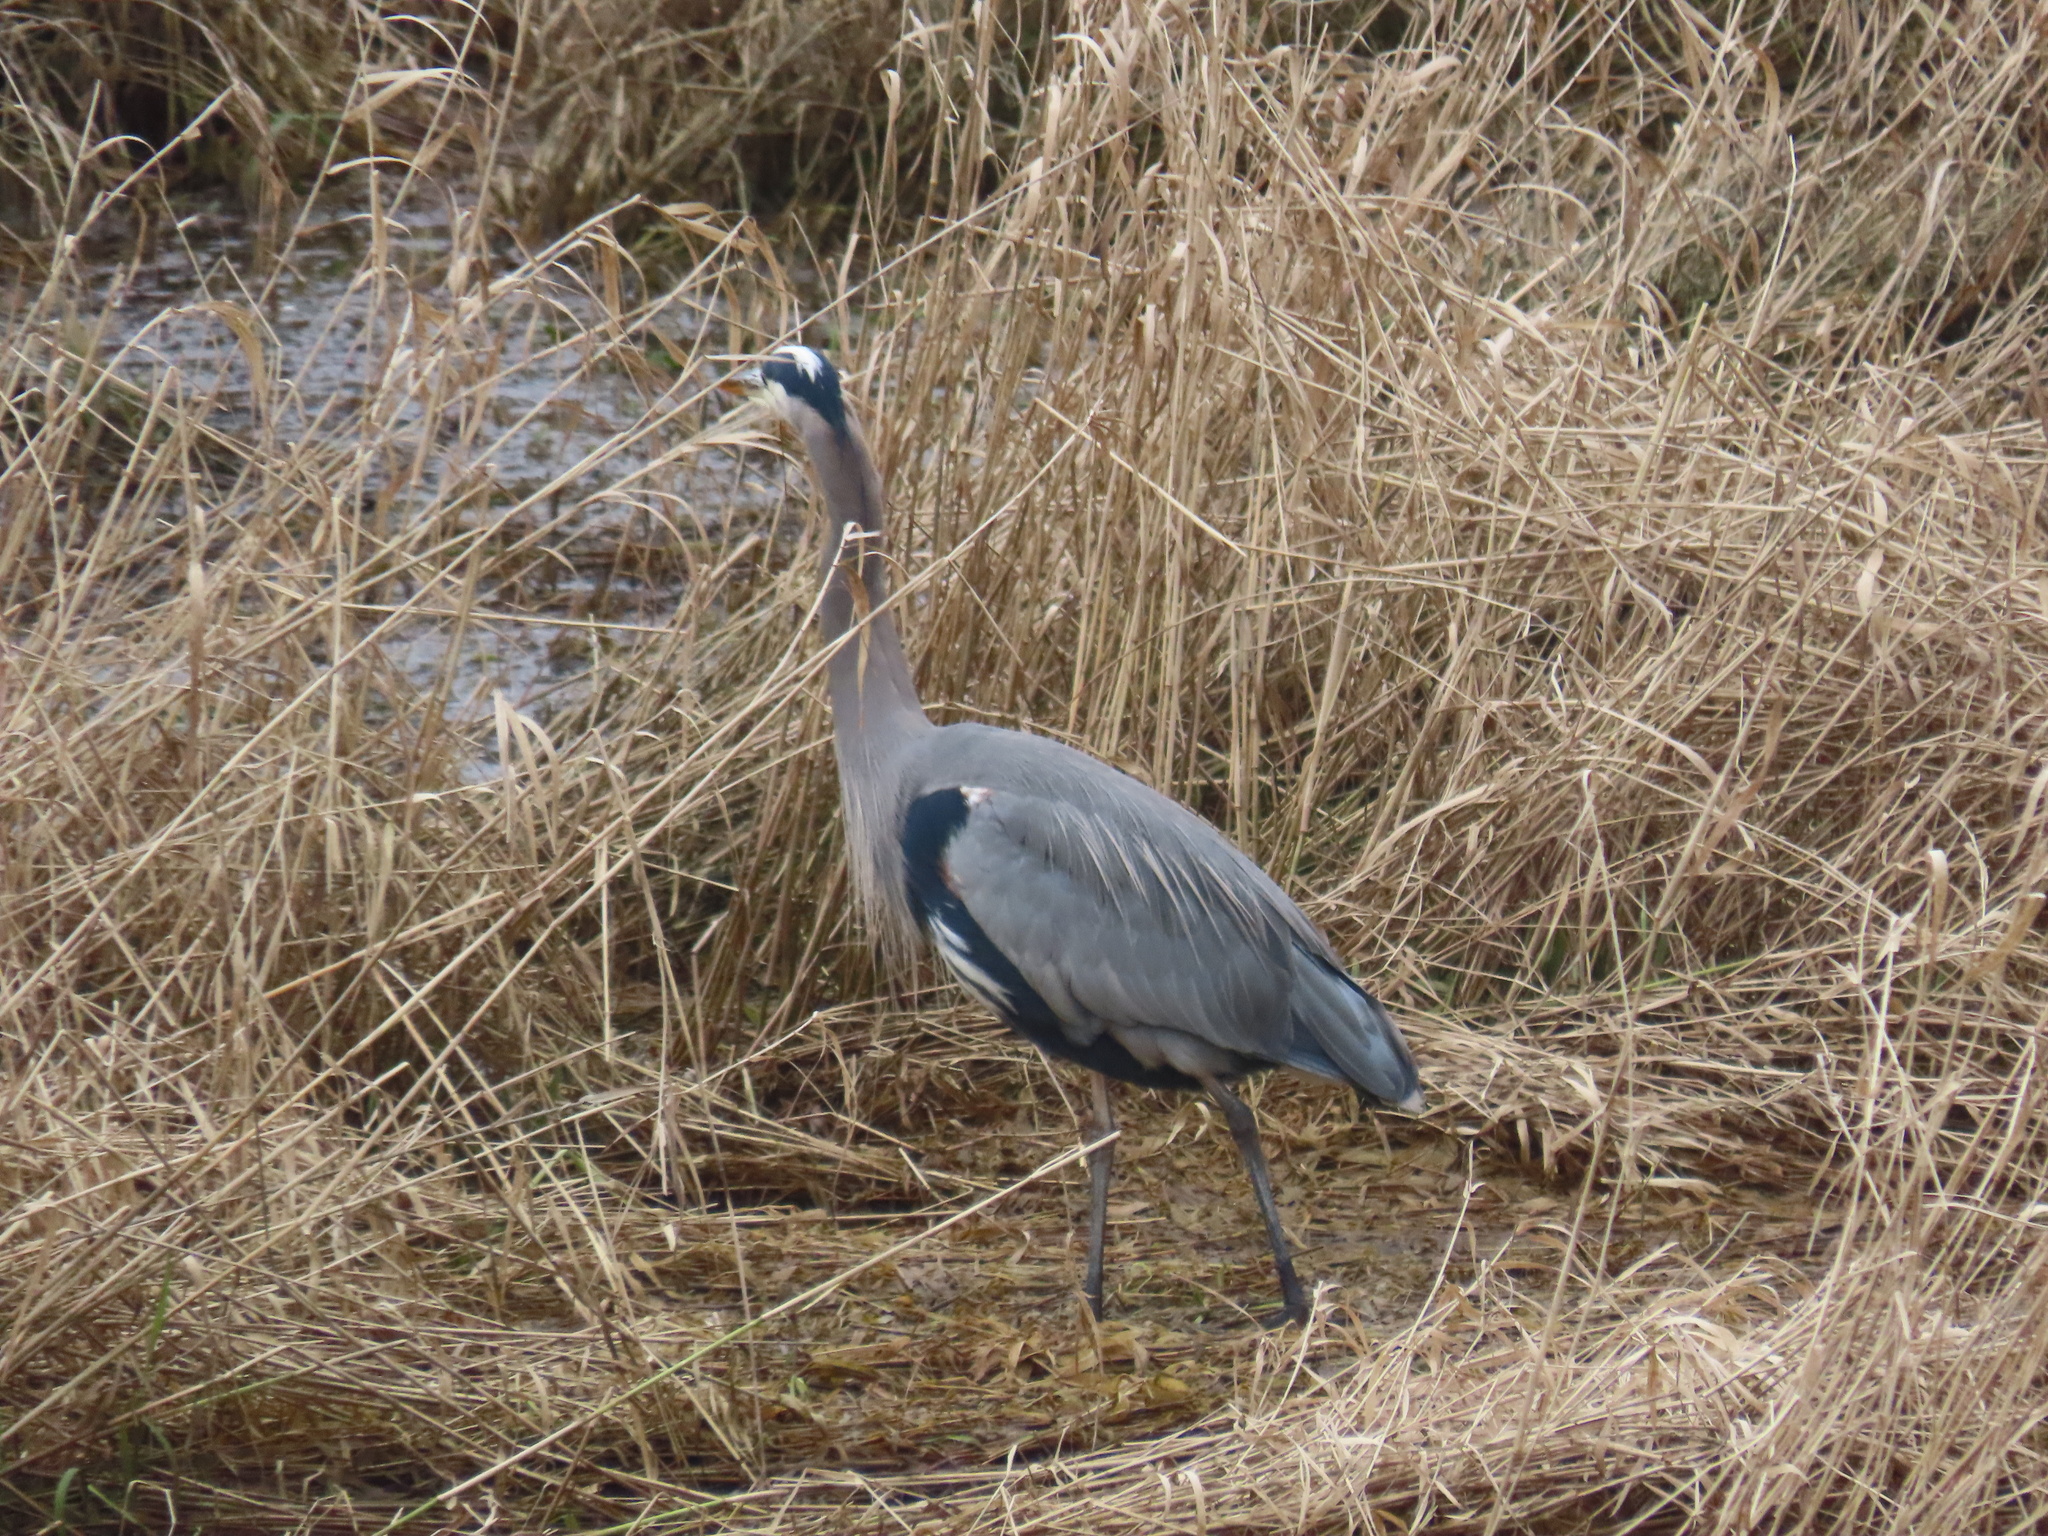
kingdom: Animalia
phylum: Chordata
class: Aves
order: Pelecaniformes
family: Ardeidae
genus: Ardea
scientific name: Ardea herodias
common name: Great blue heron
